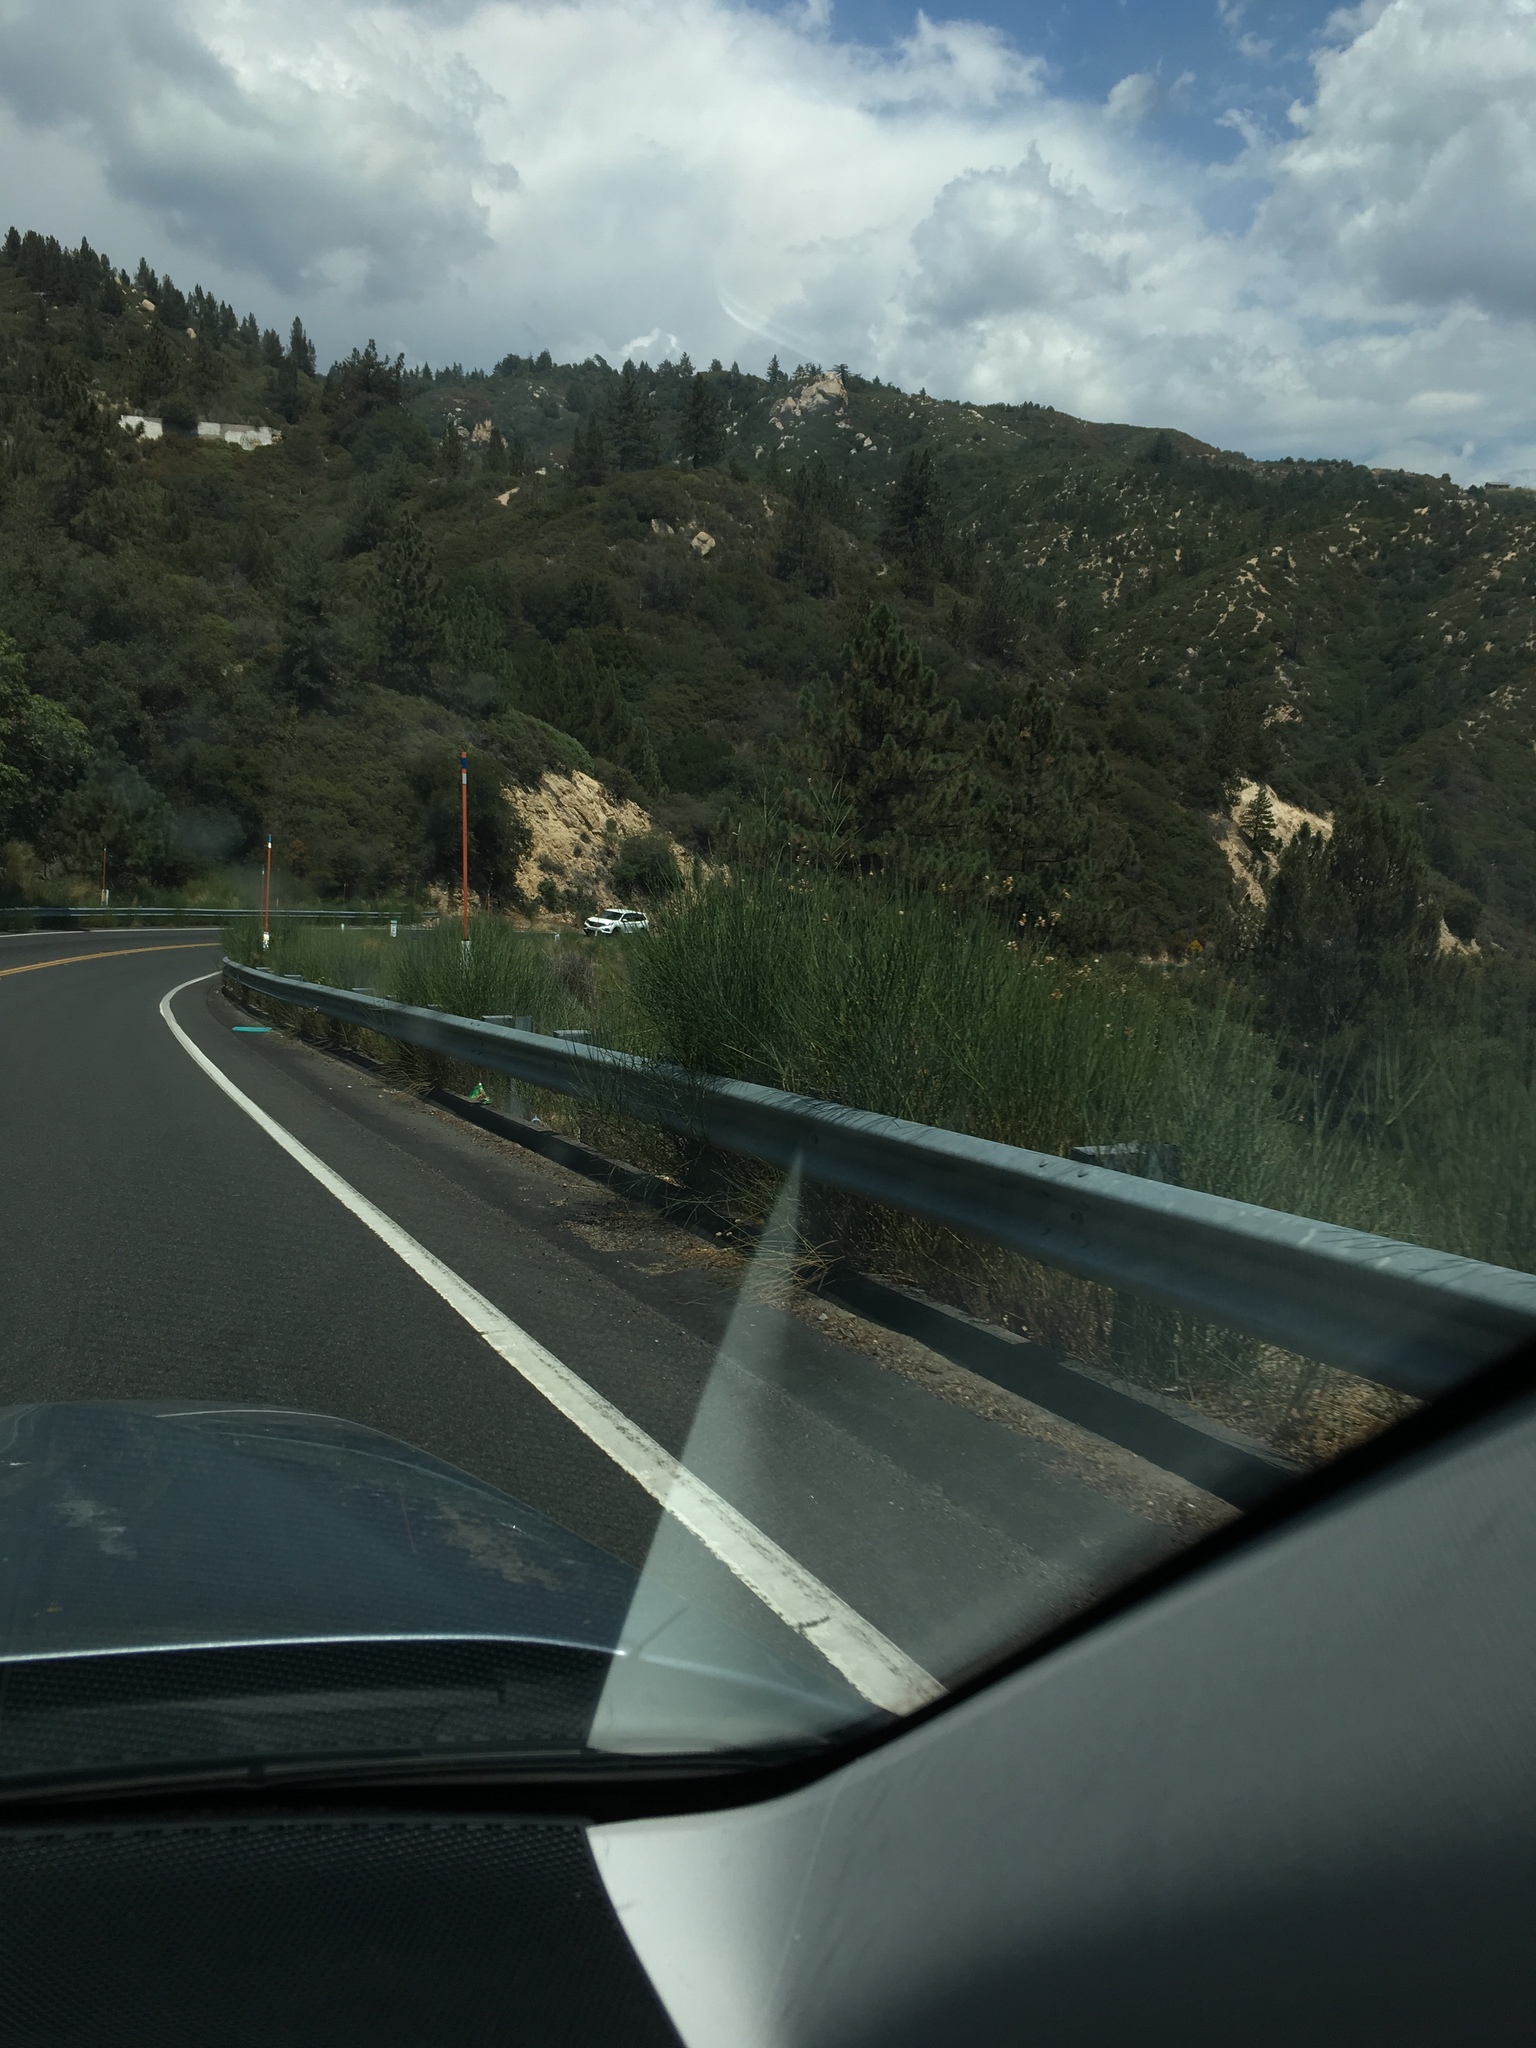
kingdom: Plantae
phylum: Tracheophyta
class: Magnoliopsida
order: Fabales
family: Fabaceae
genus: Spartium
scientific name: Spartium junceum
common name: Spanish broom
